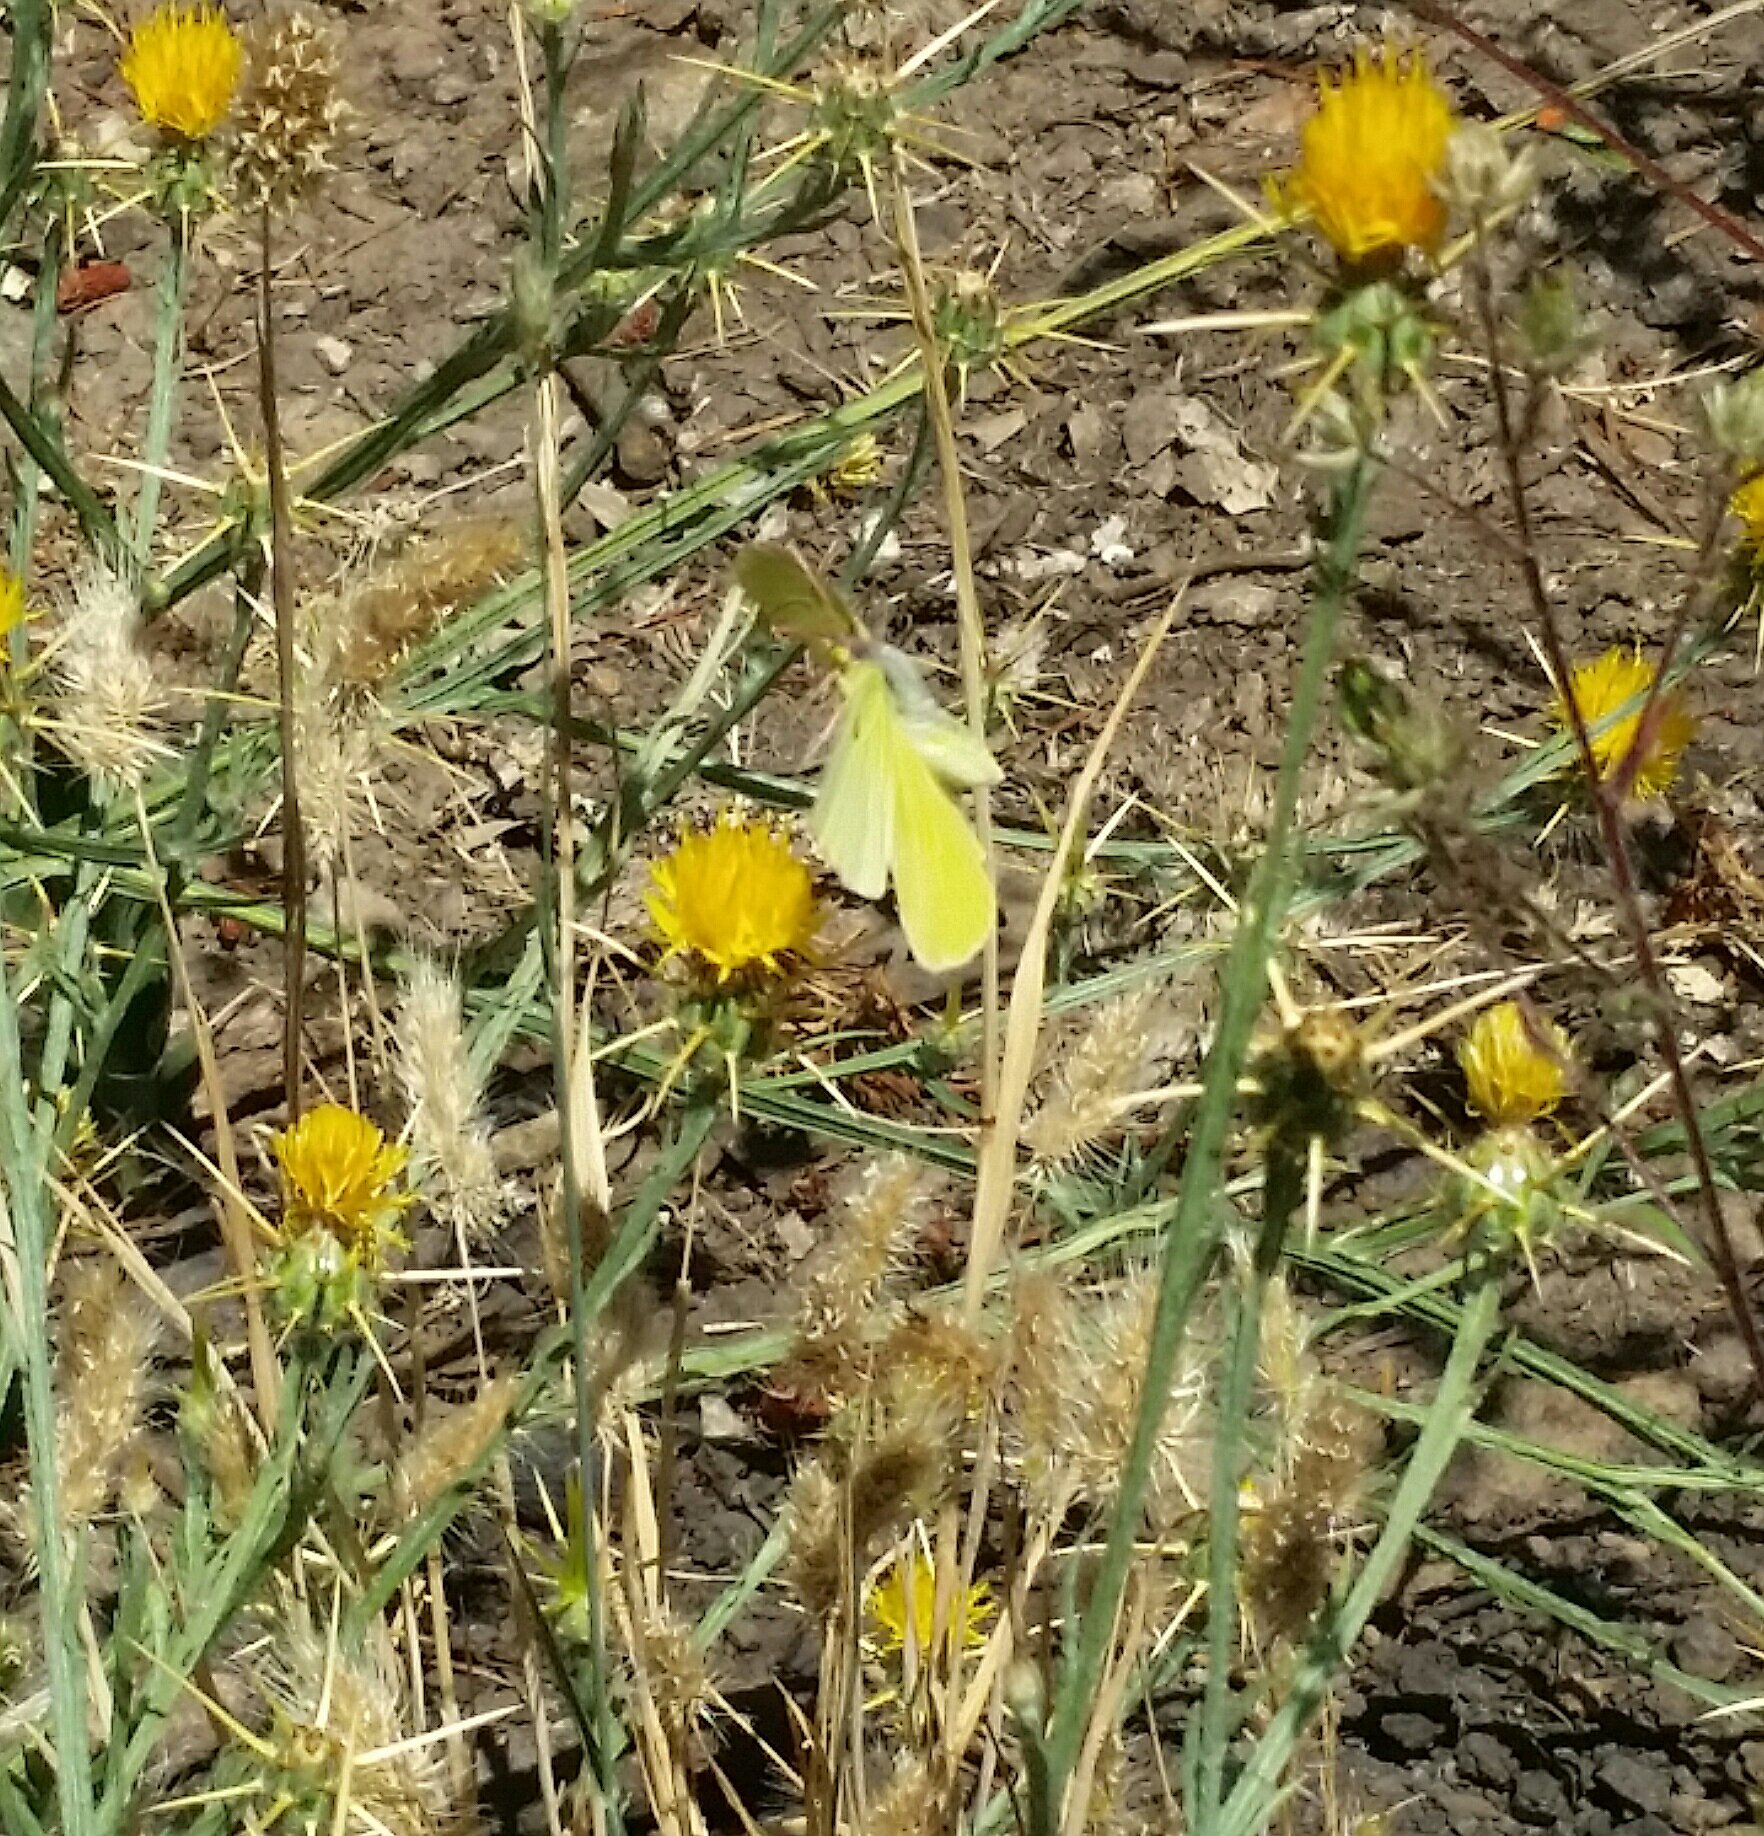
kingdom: Animalia
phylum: Arthropoda
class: Insecta
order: Lepidoptera
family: Pieridae
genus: Zerene
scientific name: Zerene eurydice
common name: California dogface
